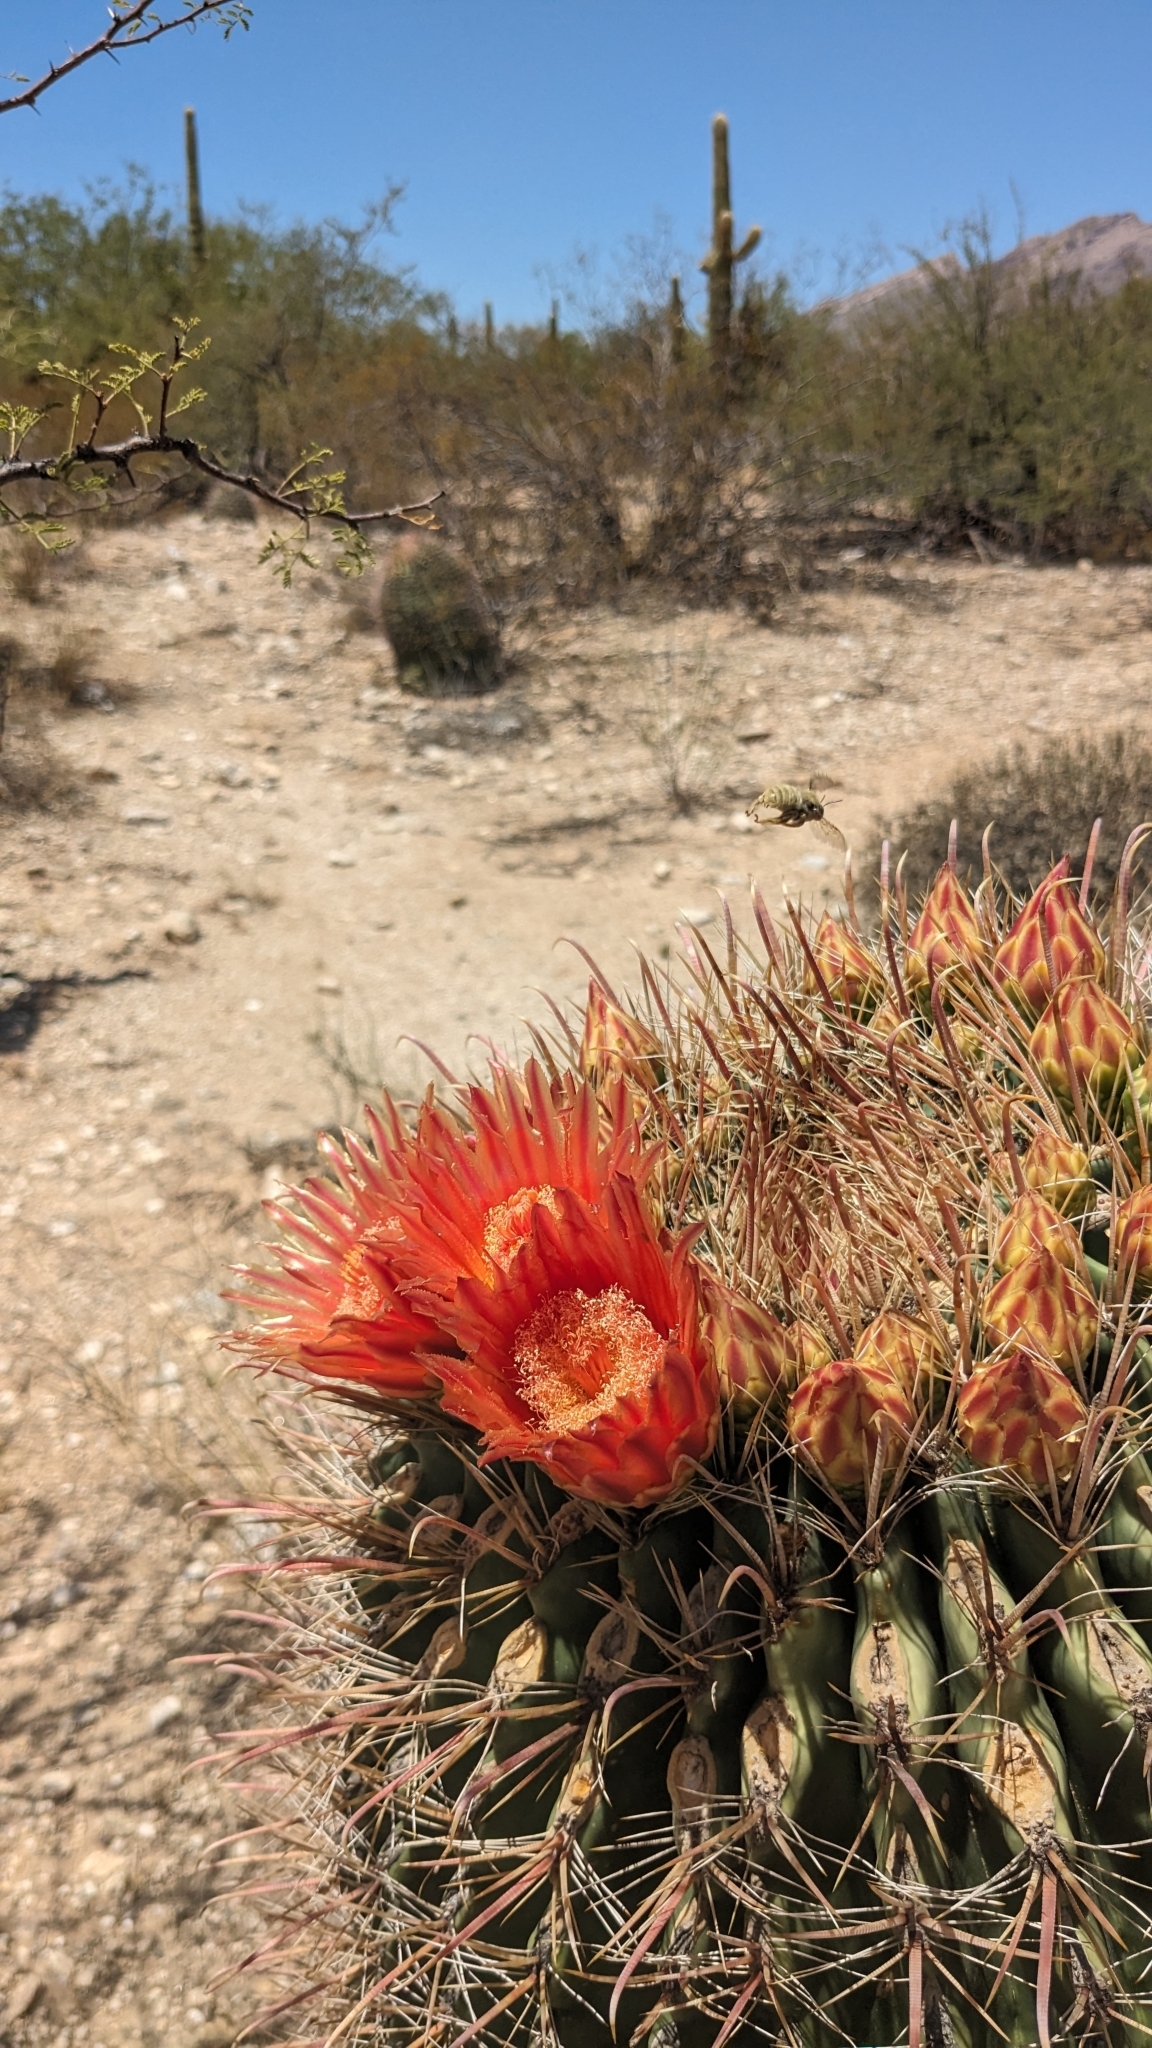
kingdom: Plantae
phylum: Tracheophyta
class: Magnoliopsida
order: Caryophyllales
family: Cactaceae
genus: Ferocactus
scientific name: Ferocactus wislizeni
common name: Candy barrel cactus
